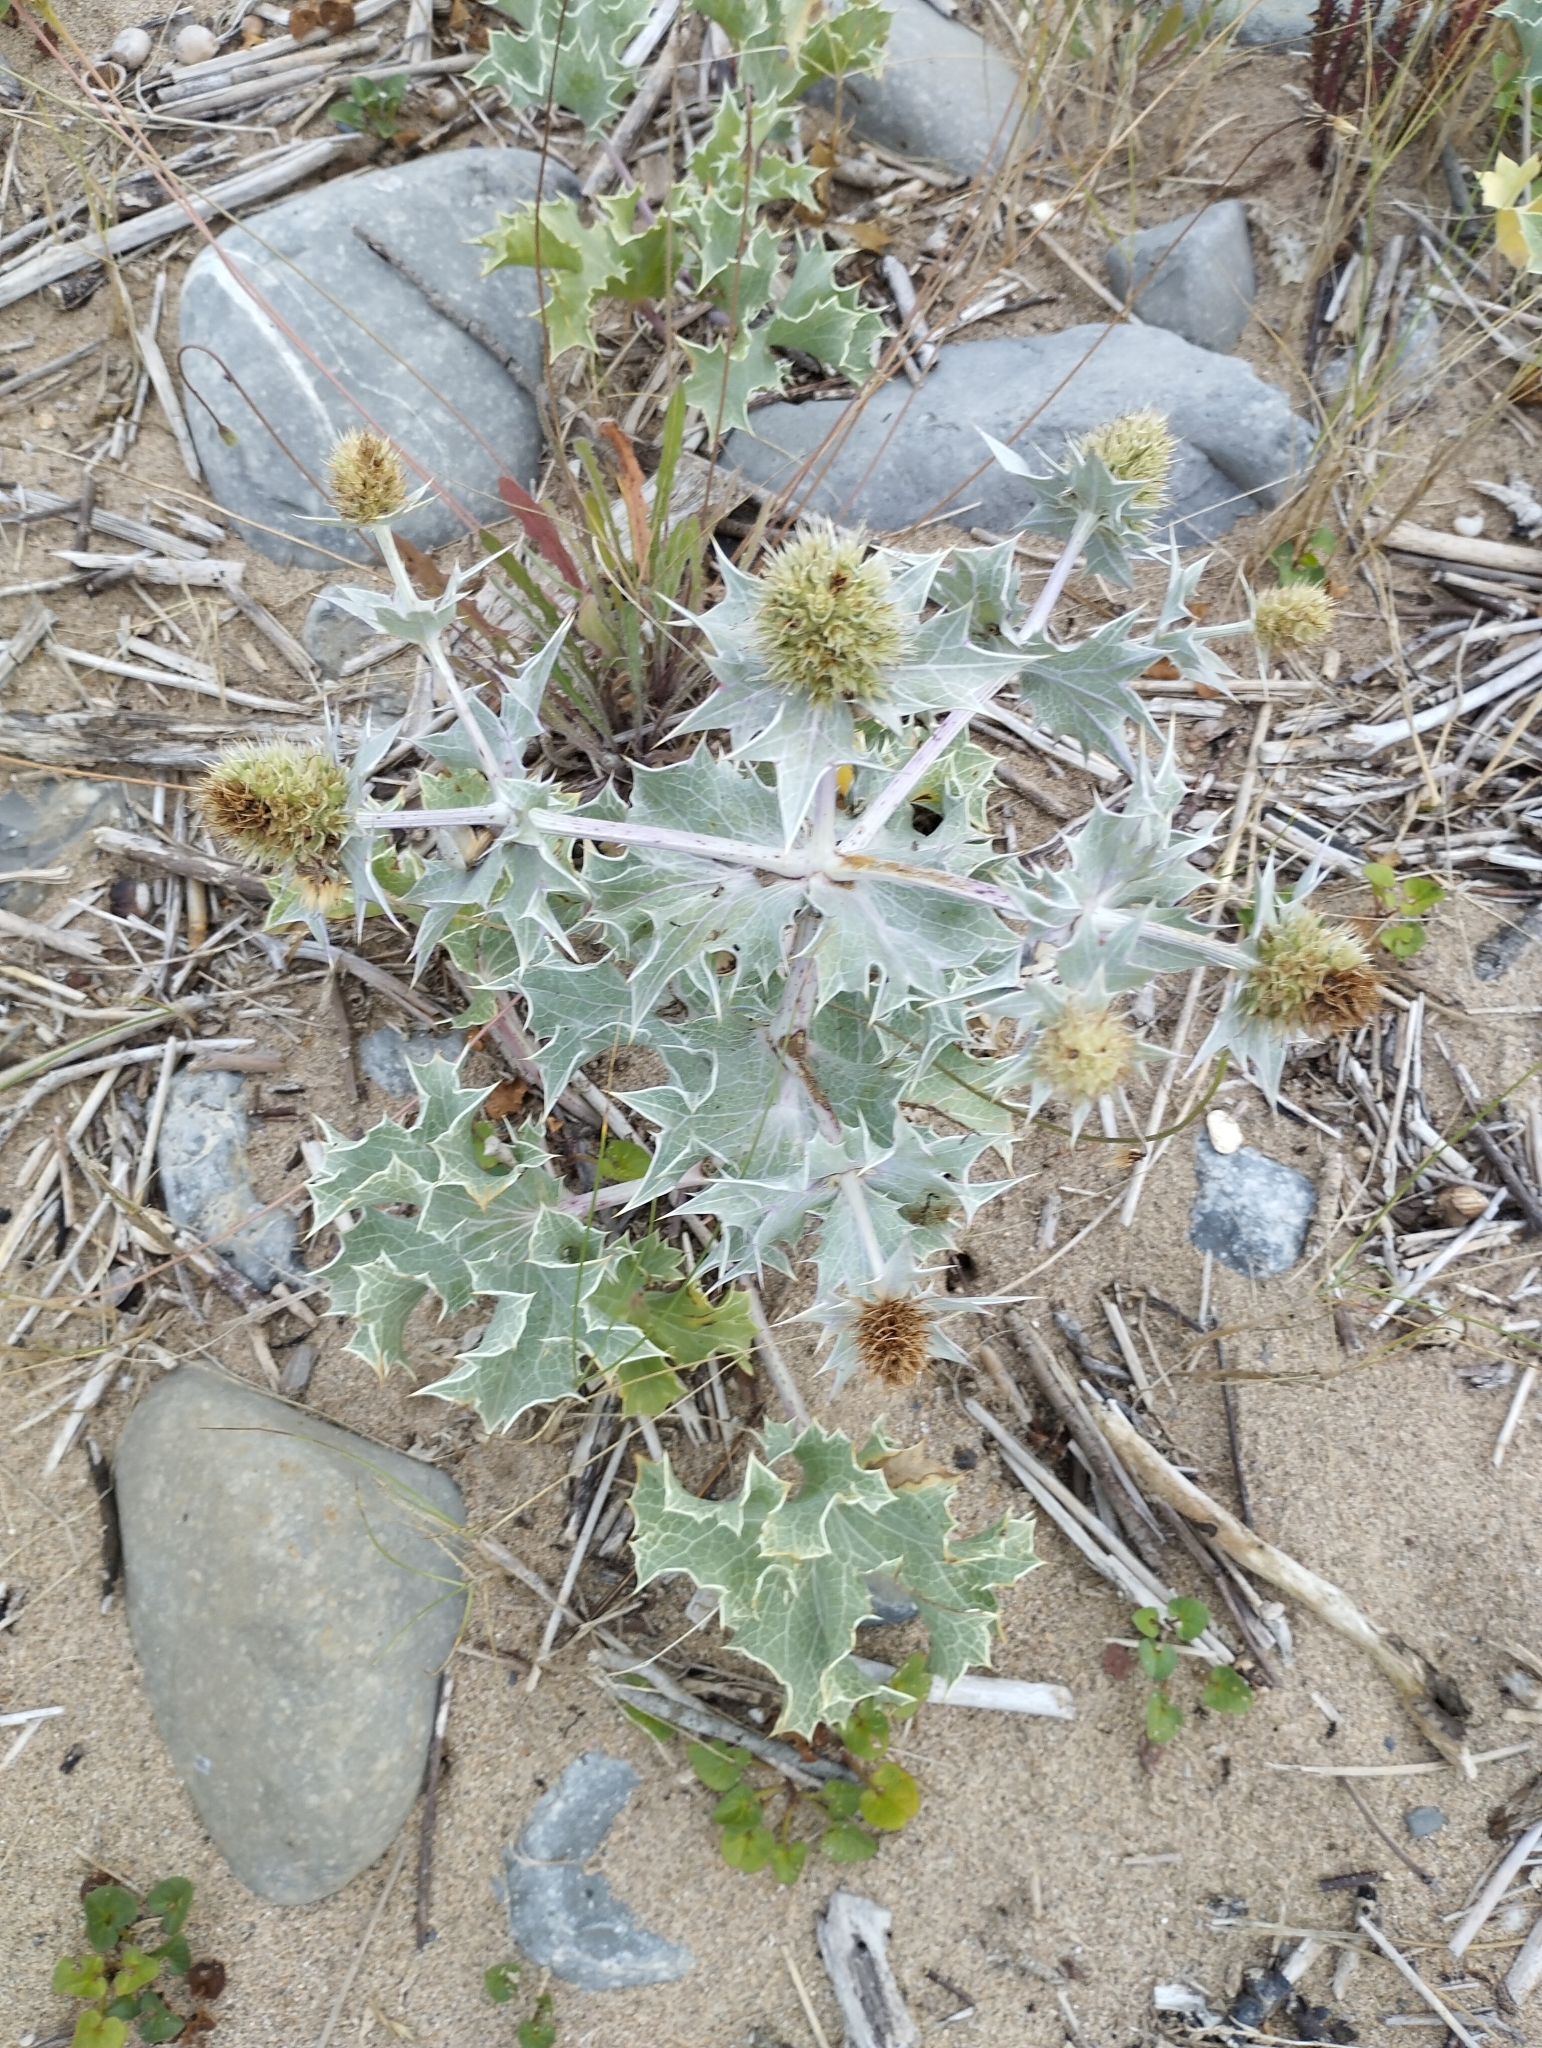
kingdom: Plantae
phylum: Tracheophyta
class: Magnoliopsida
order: Apiales
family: Apiaceae
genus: Eryngium
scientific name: Eryngium maritimum
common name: Sea-holly
